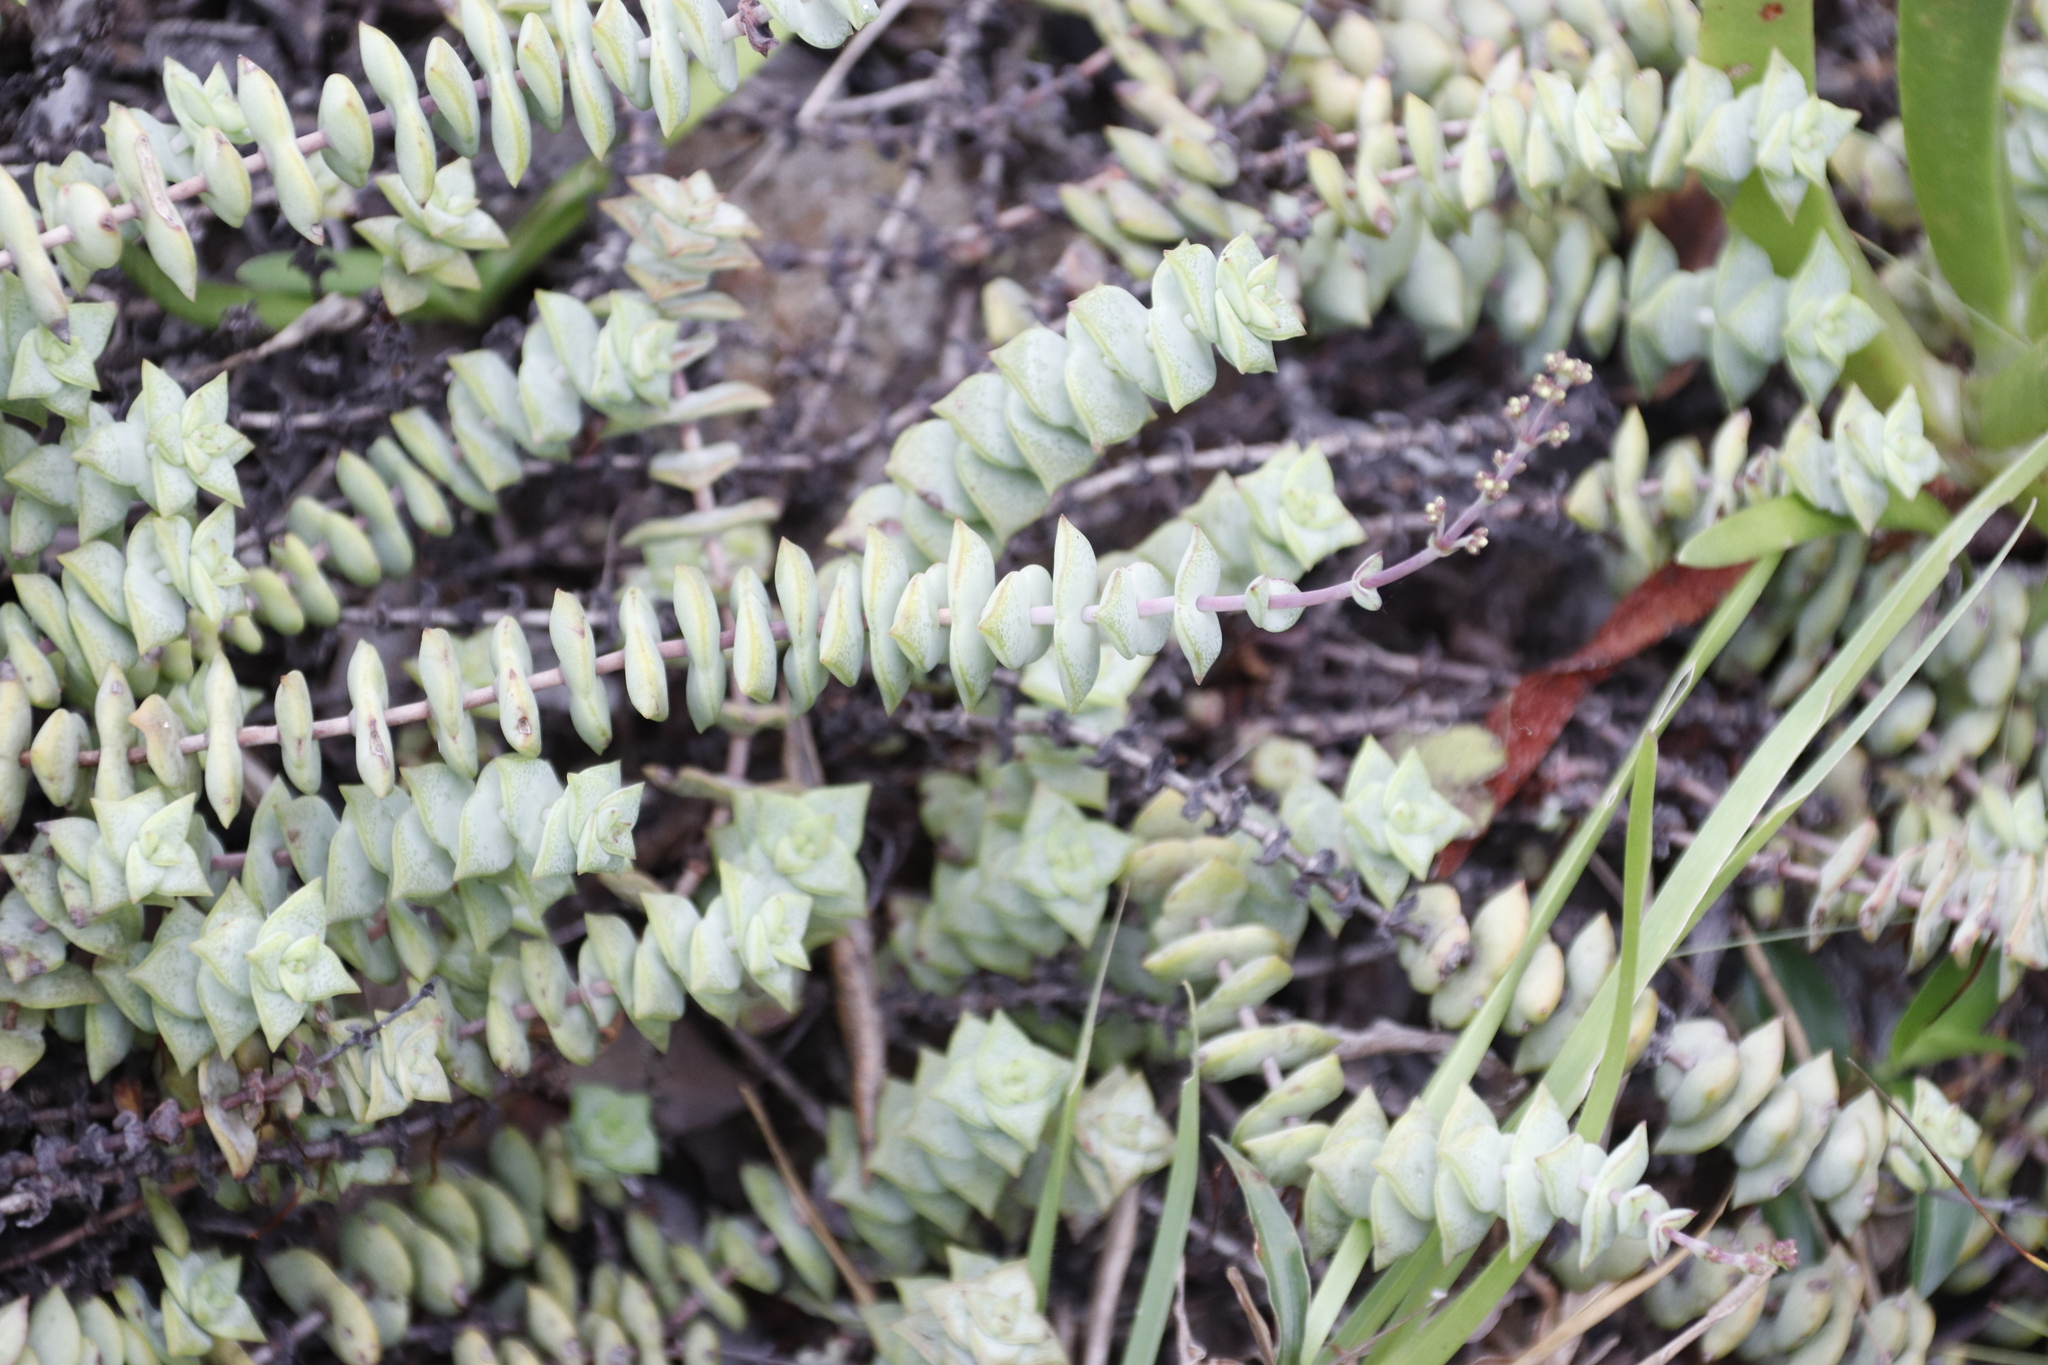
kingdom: Plantae
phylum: Tracheophyta
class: Magnoliopsida
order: Saxifragales
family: Crassulaceae
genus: Crassula
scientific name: Crassula perforata
